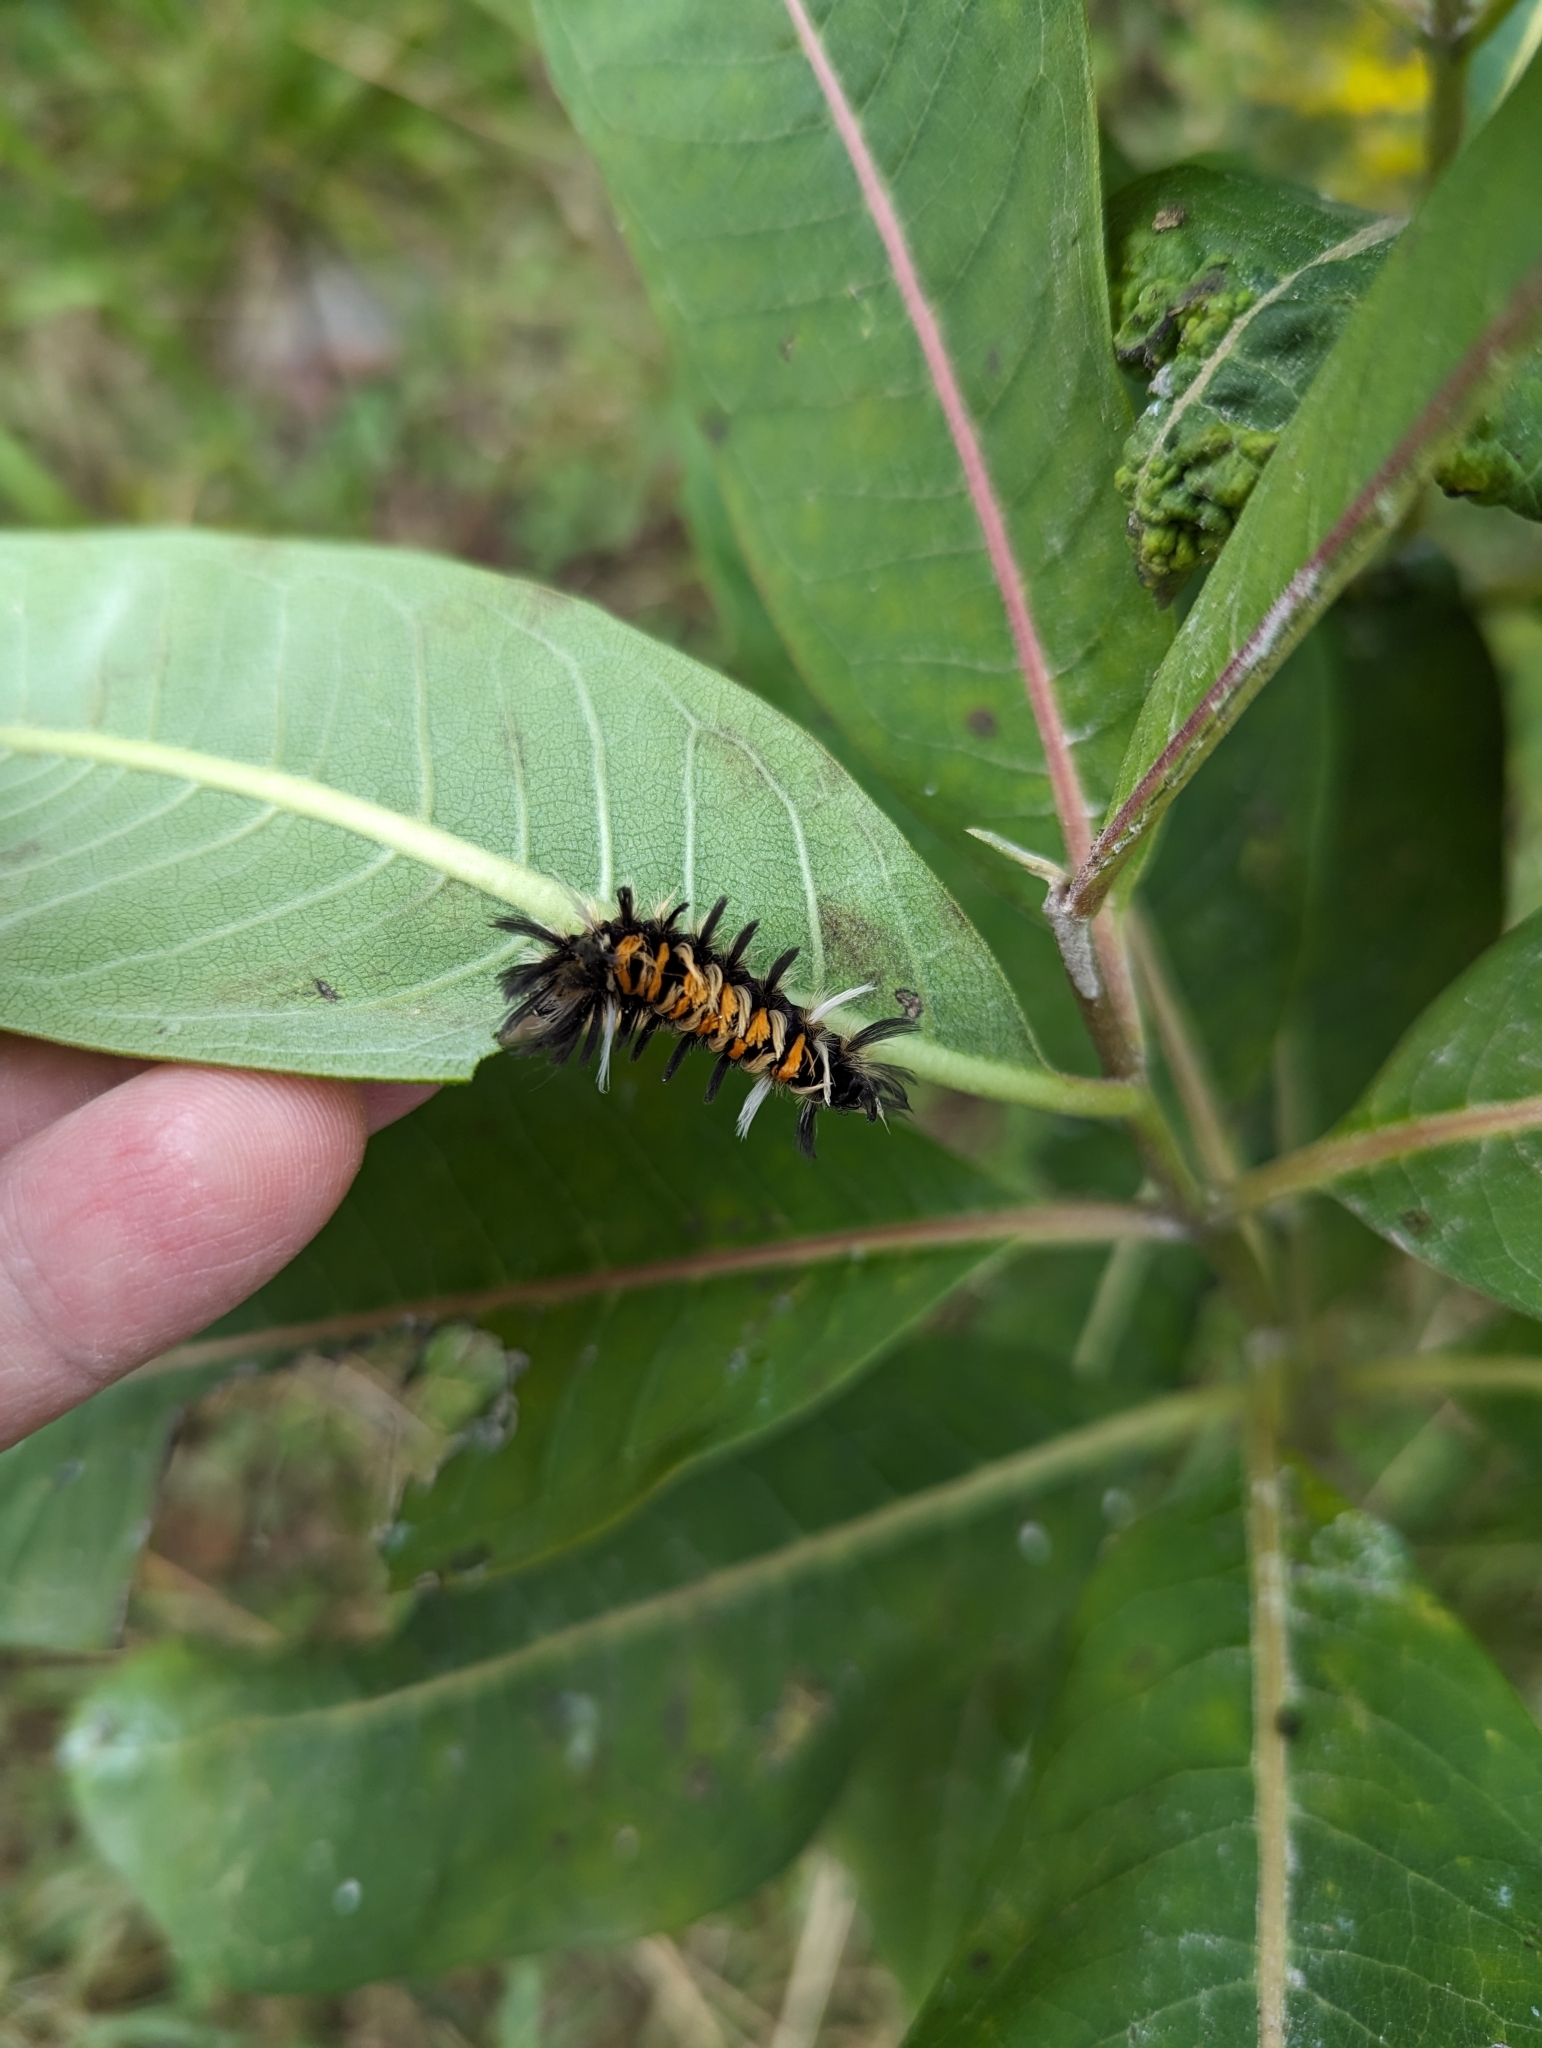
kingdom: Animalia
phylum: Arthropoda
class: Insecta
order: Lepidoptera
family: Erebidae
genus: Euchaetes
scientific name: Euchaetes egle
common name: Milkweed tussock moth
